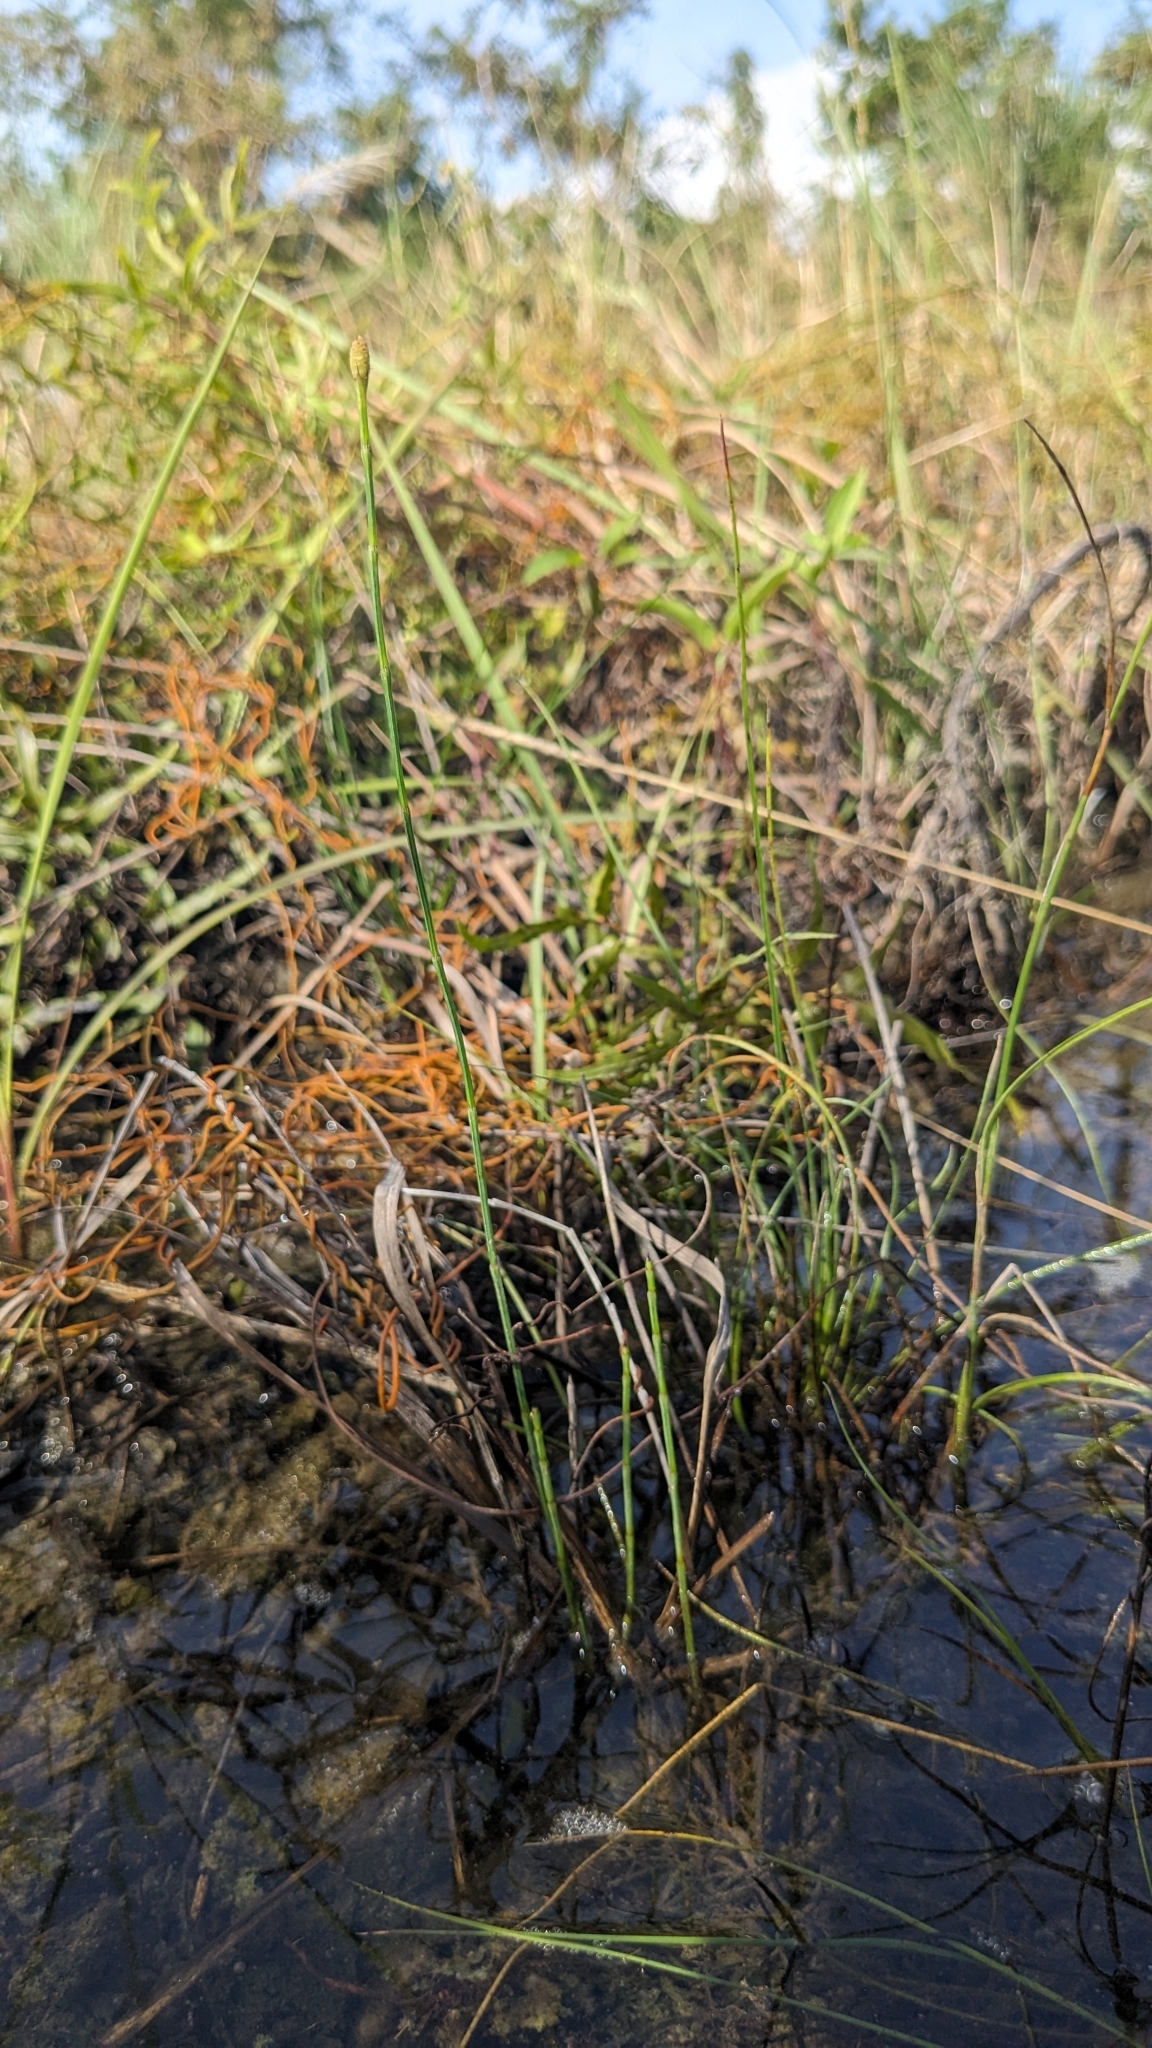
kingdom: Plantae
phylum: Tracheophyta
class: Polypodiopsida
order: Equisetales
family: Equisetaceae
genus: Equisetum
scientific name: Equisetum ramosissimum
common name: Branched horsetail
